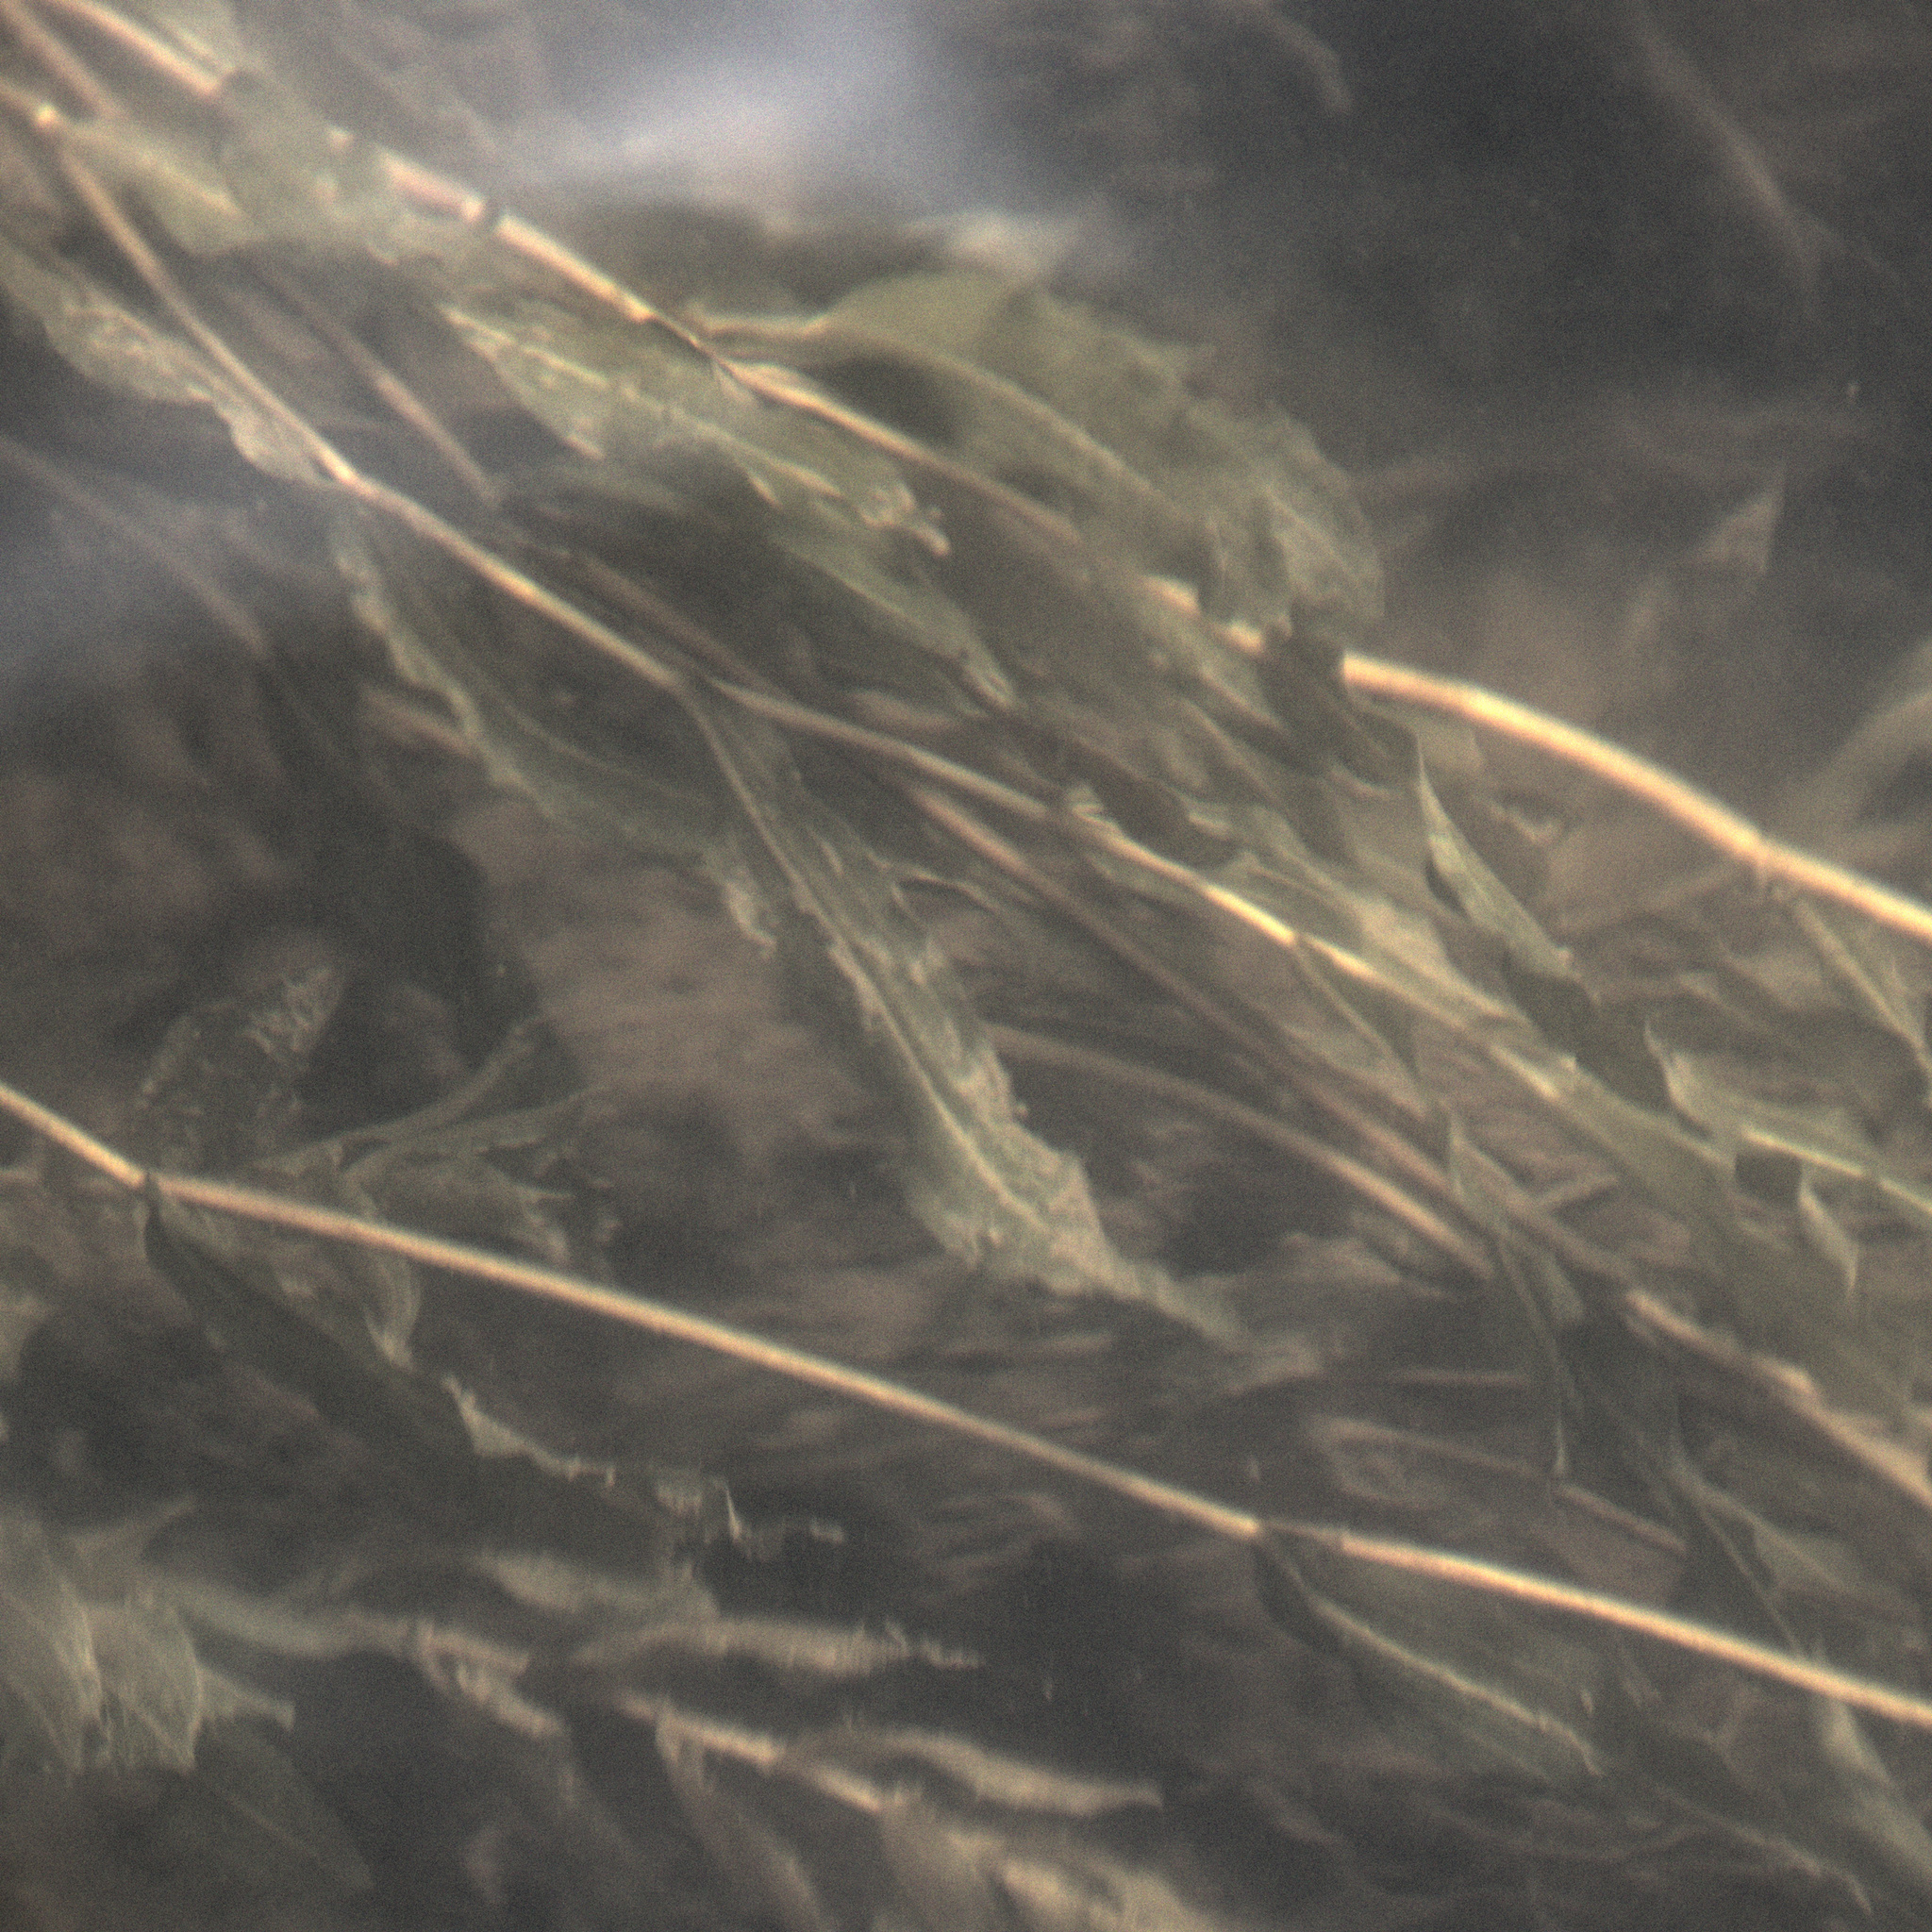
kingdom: Plantae
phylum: Tracheophyta
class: Liliopsida
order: Alismatales
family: Potamogetonaceae
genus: Potamogeton
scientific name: Potamogeton lucens
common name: Shining pondweed
